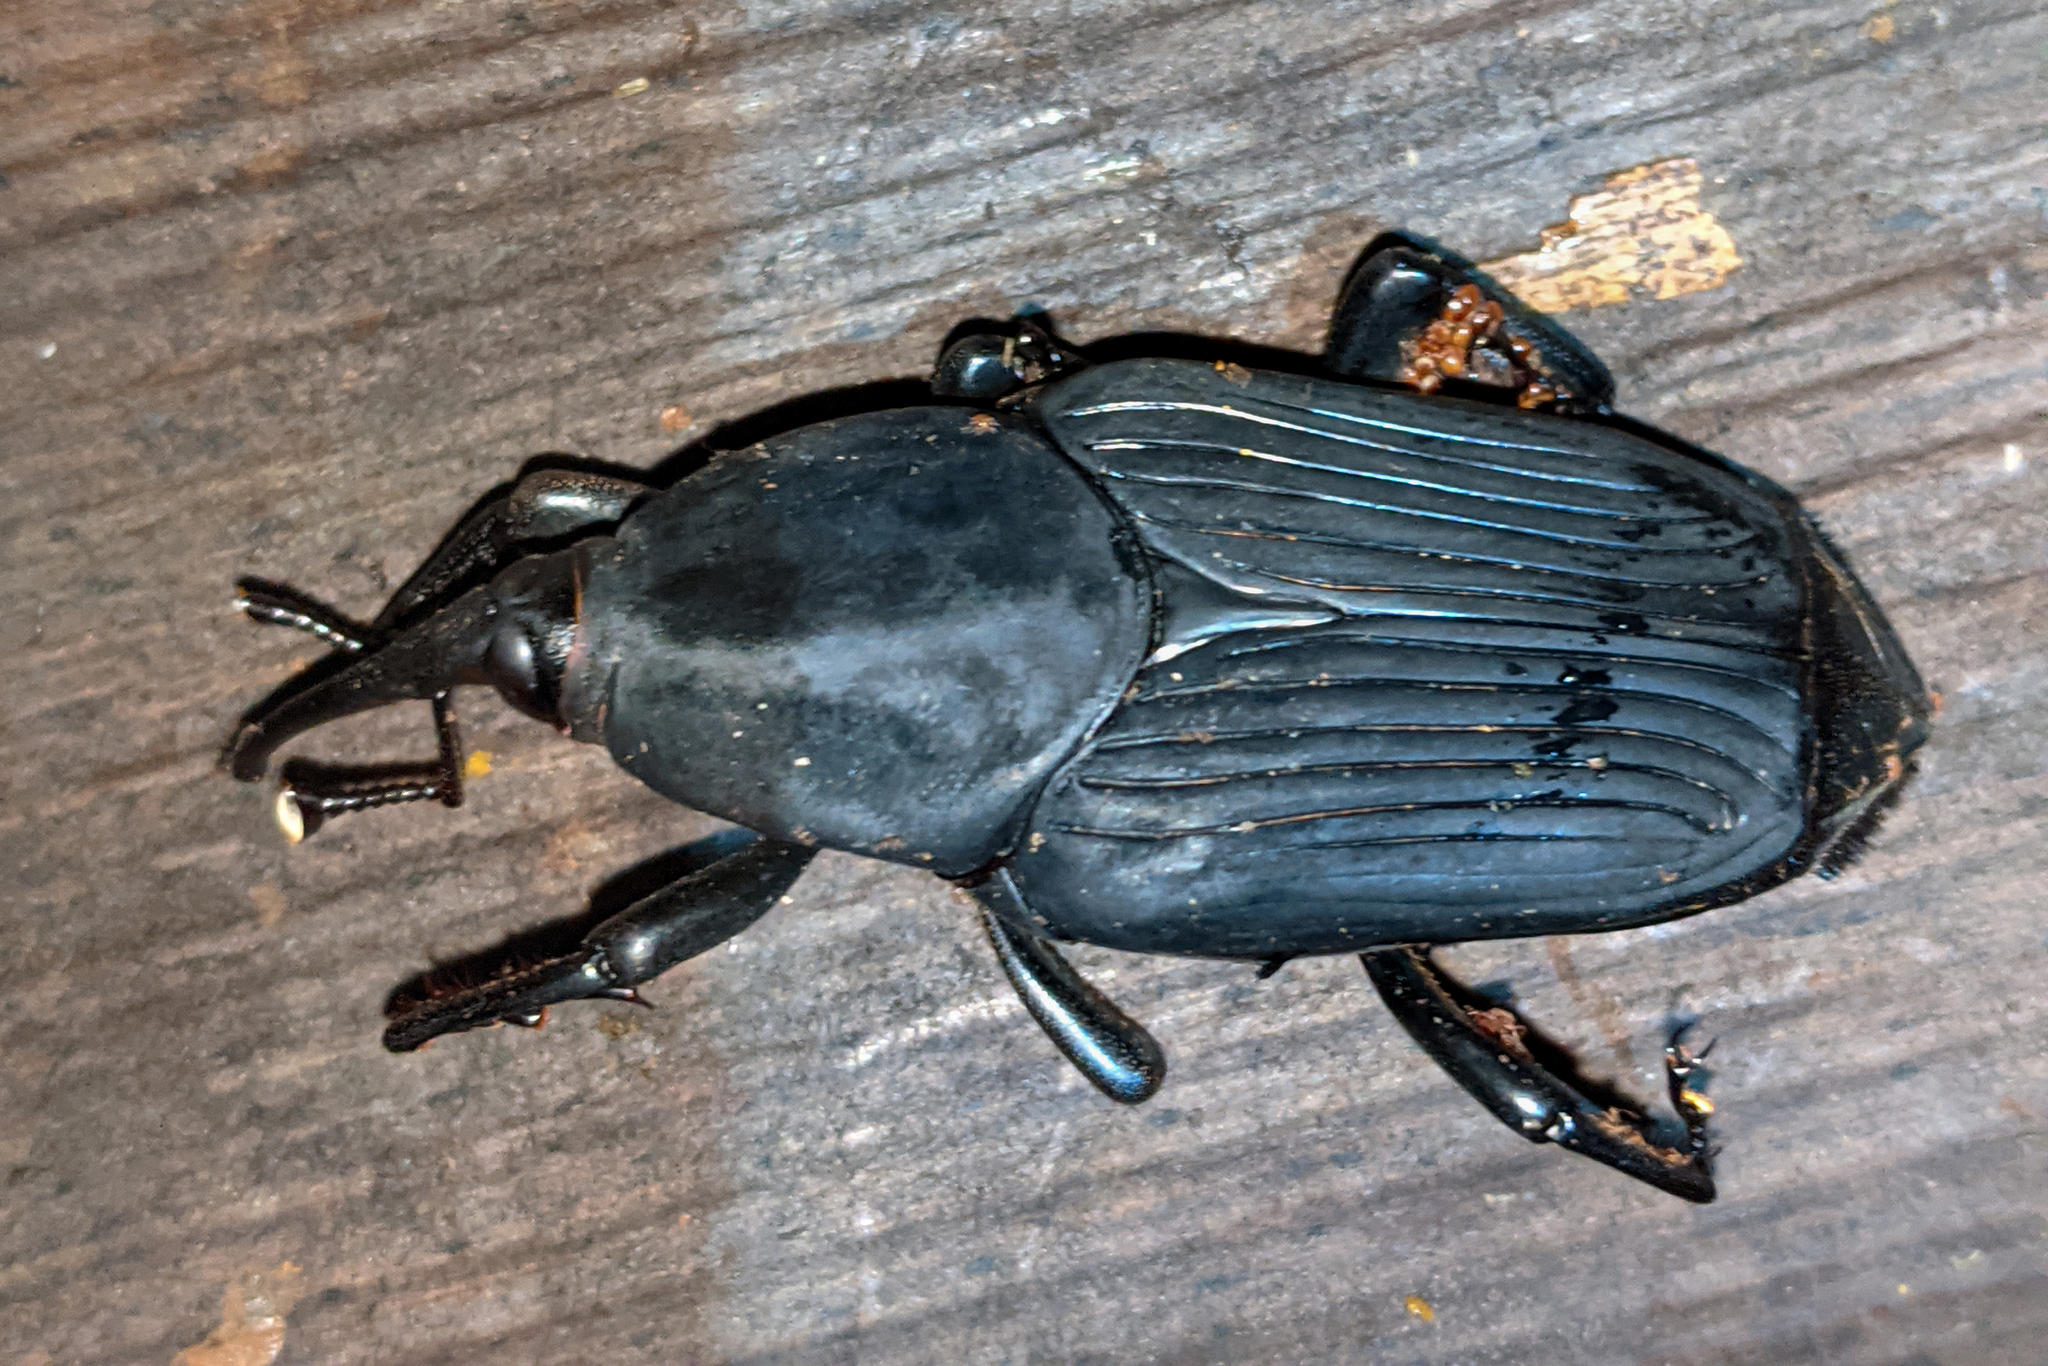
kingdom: Animalia
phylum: Arthropoda
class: Insecta
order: Coleoptera
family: Dryophthoridae
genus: Rhynchophorus
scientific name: Rhynchophorus palmarum
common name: Palm weevil
